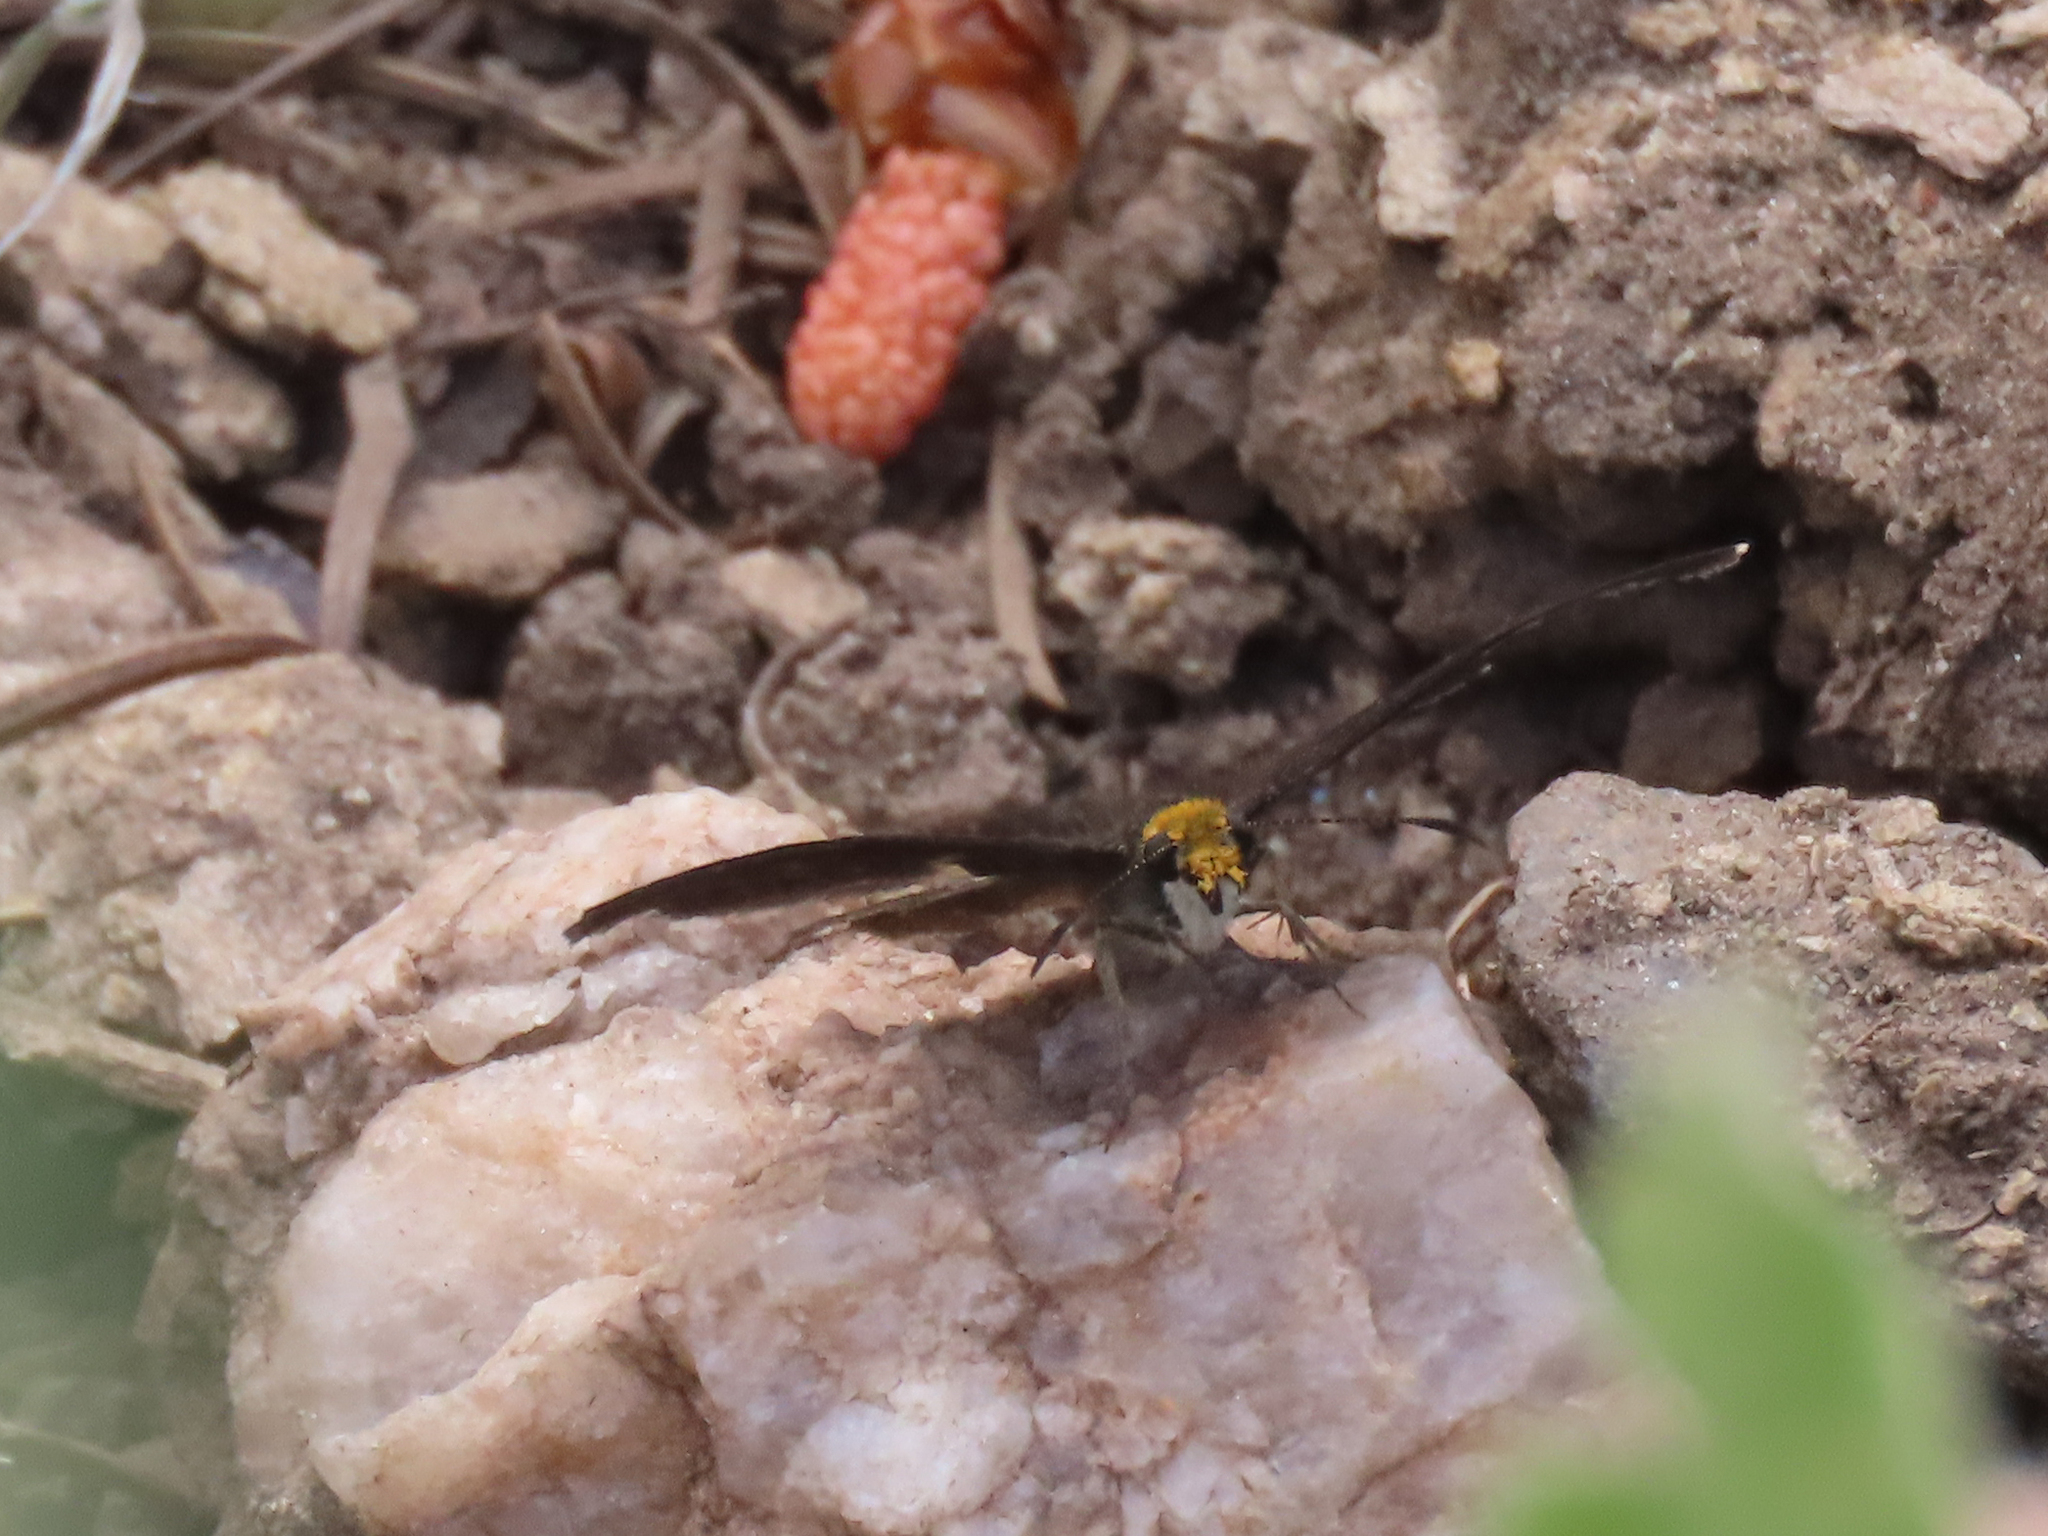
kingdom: Animalia
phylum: Arthropoda
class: Insecta
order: Lepidoptera
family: Hesperiidae
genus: Staphylus
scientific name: Staphylus ceos
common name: Golden-headed scallopwing
